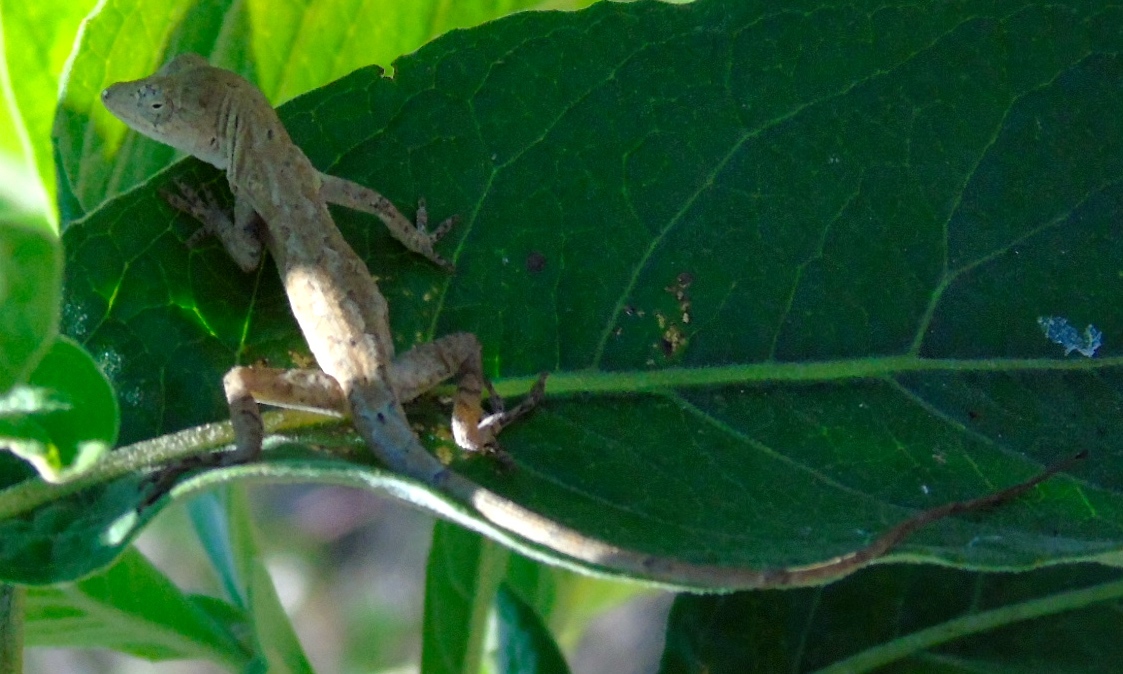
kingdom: Animalia
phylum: Chordata
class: Squamata
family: Dactyloidae
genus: Anolis
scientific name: Anolis nebulosus
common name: Clouded anole
